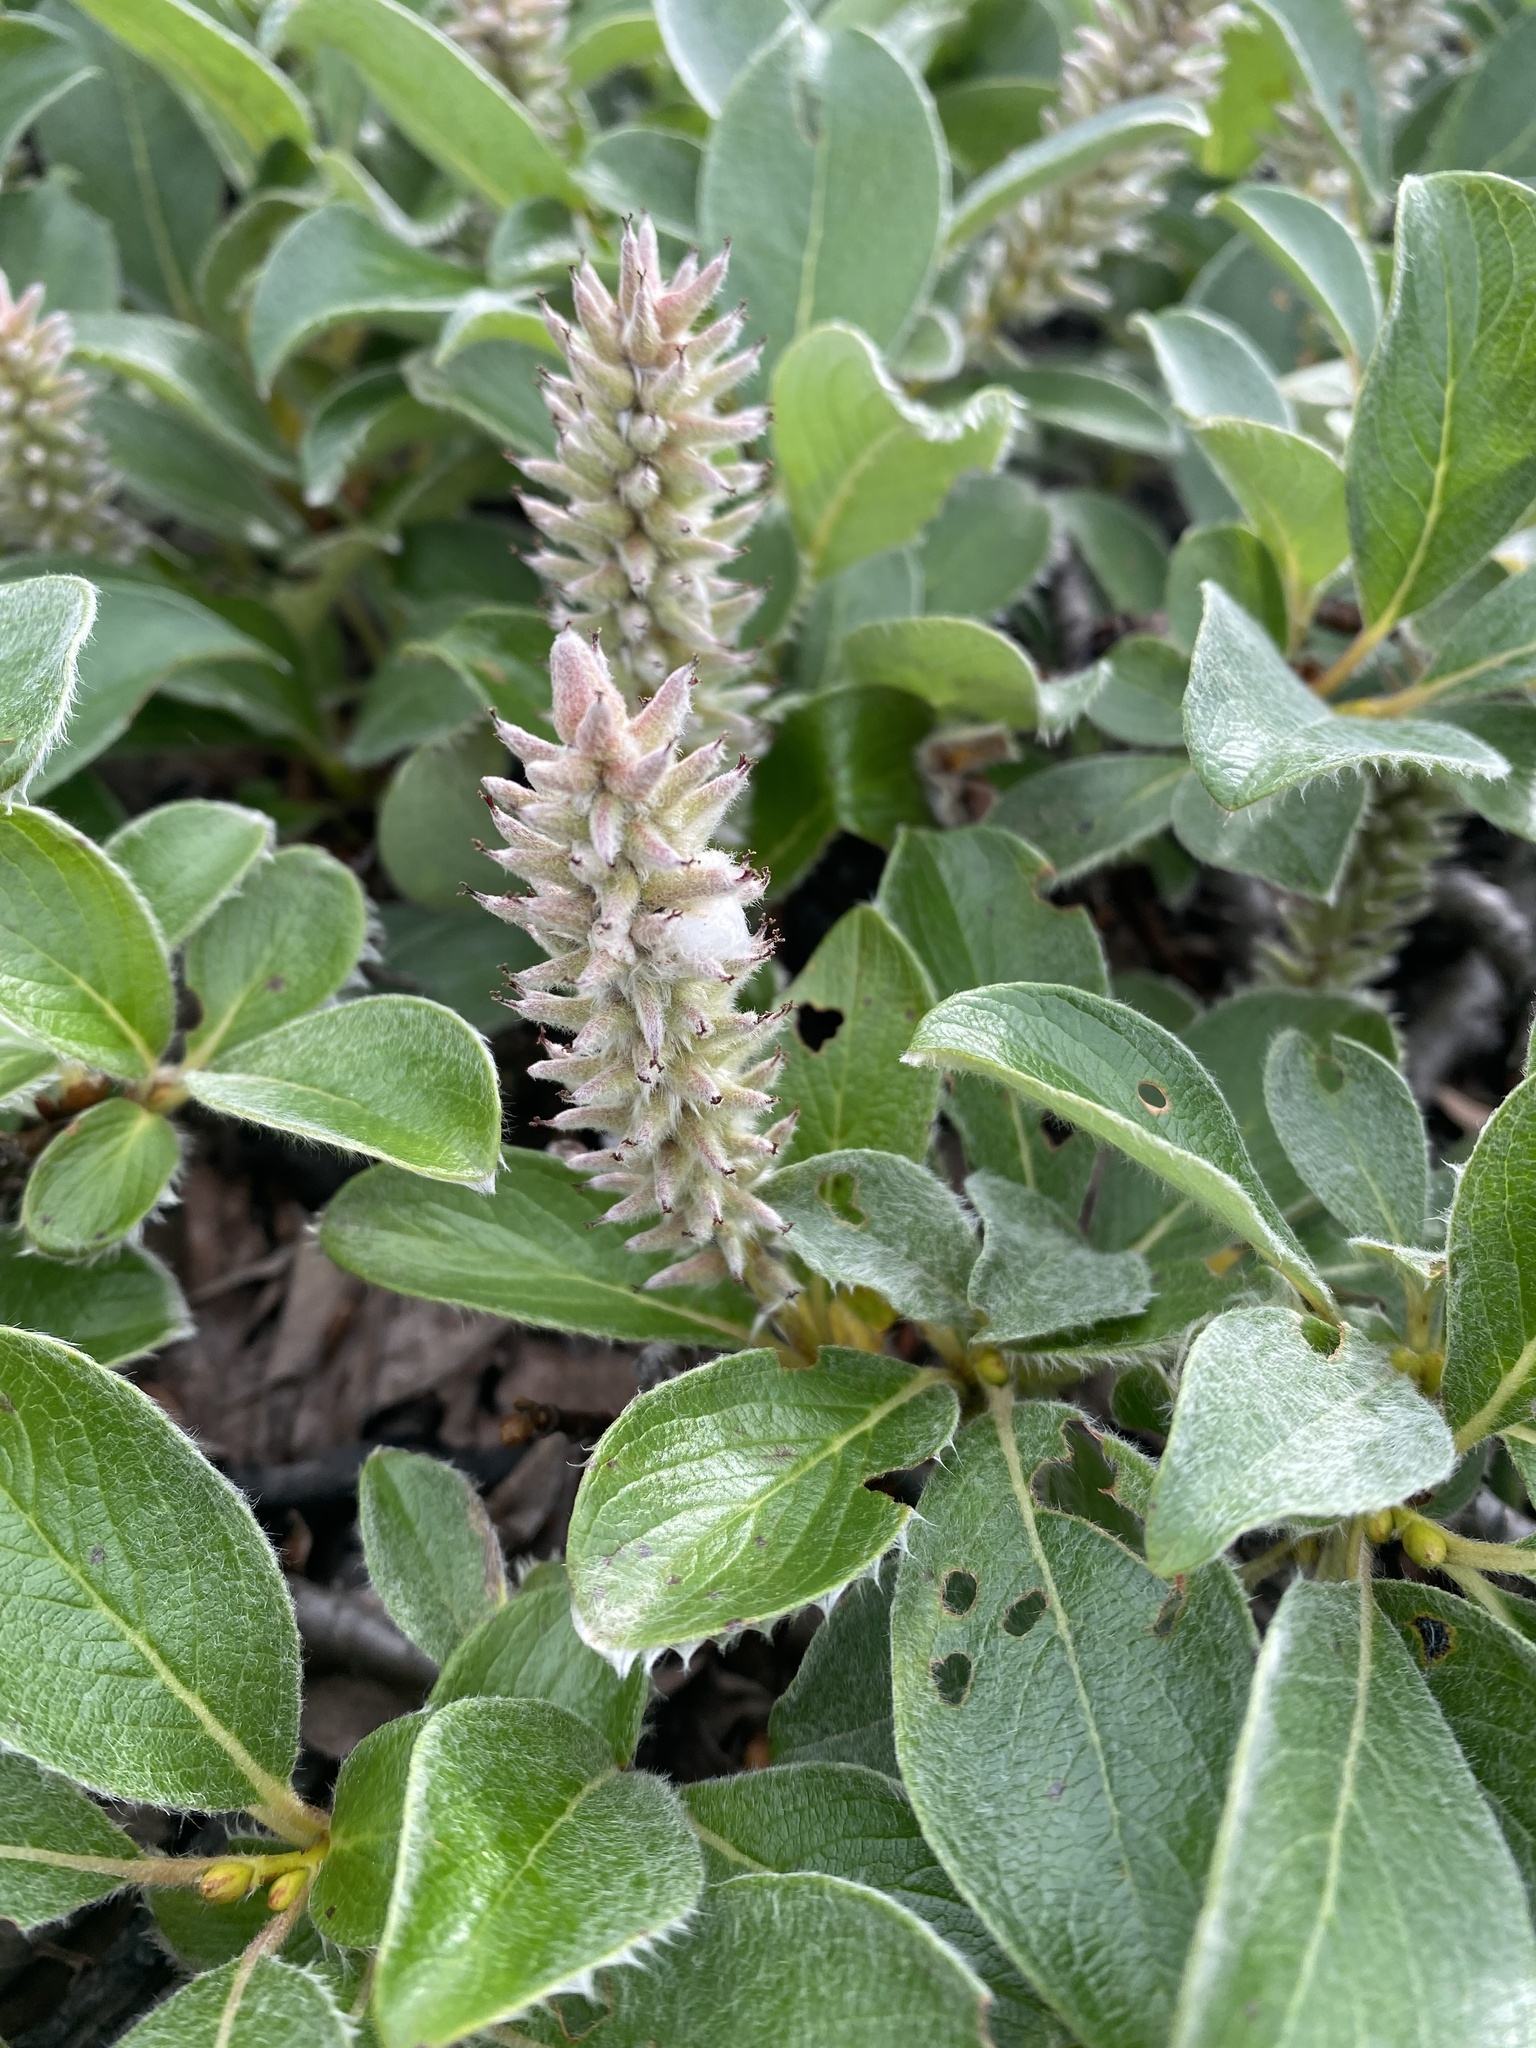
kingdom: Plantae
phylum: Tracheophyta
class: Magnoliopsida
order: Malpighiales
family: Salicaceae
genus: Salix
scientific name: Salix arctica
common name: Arctic willow
